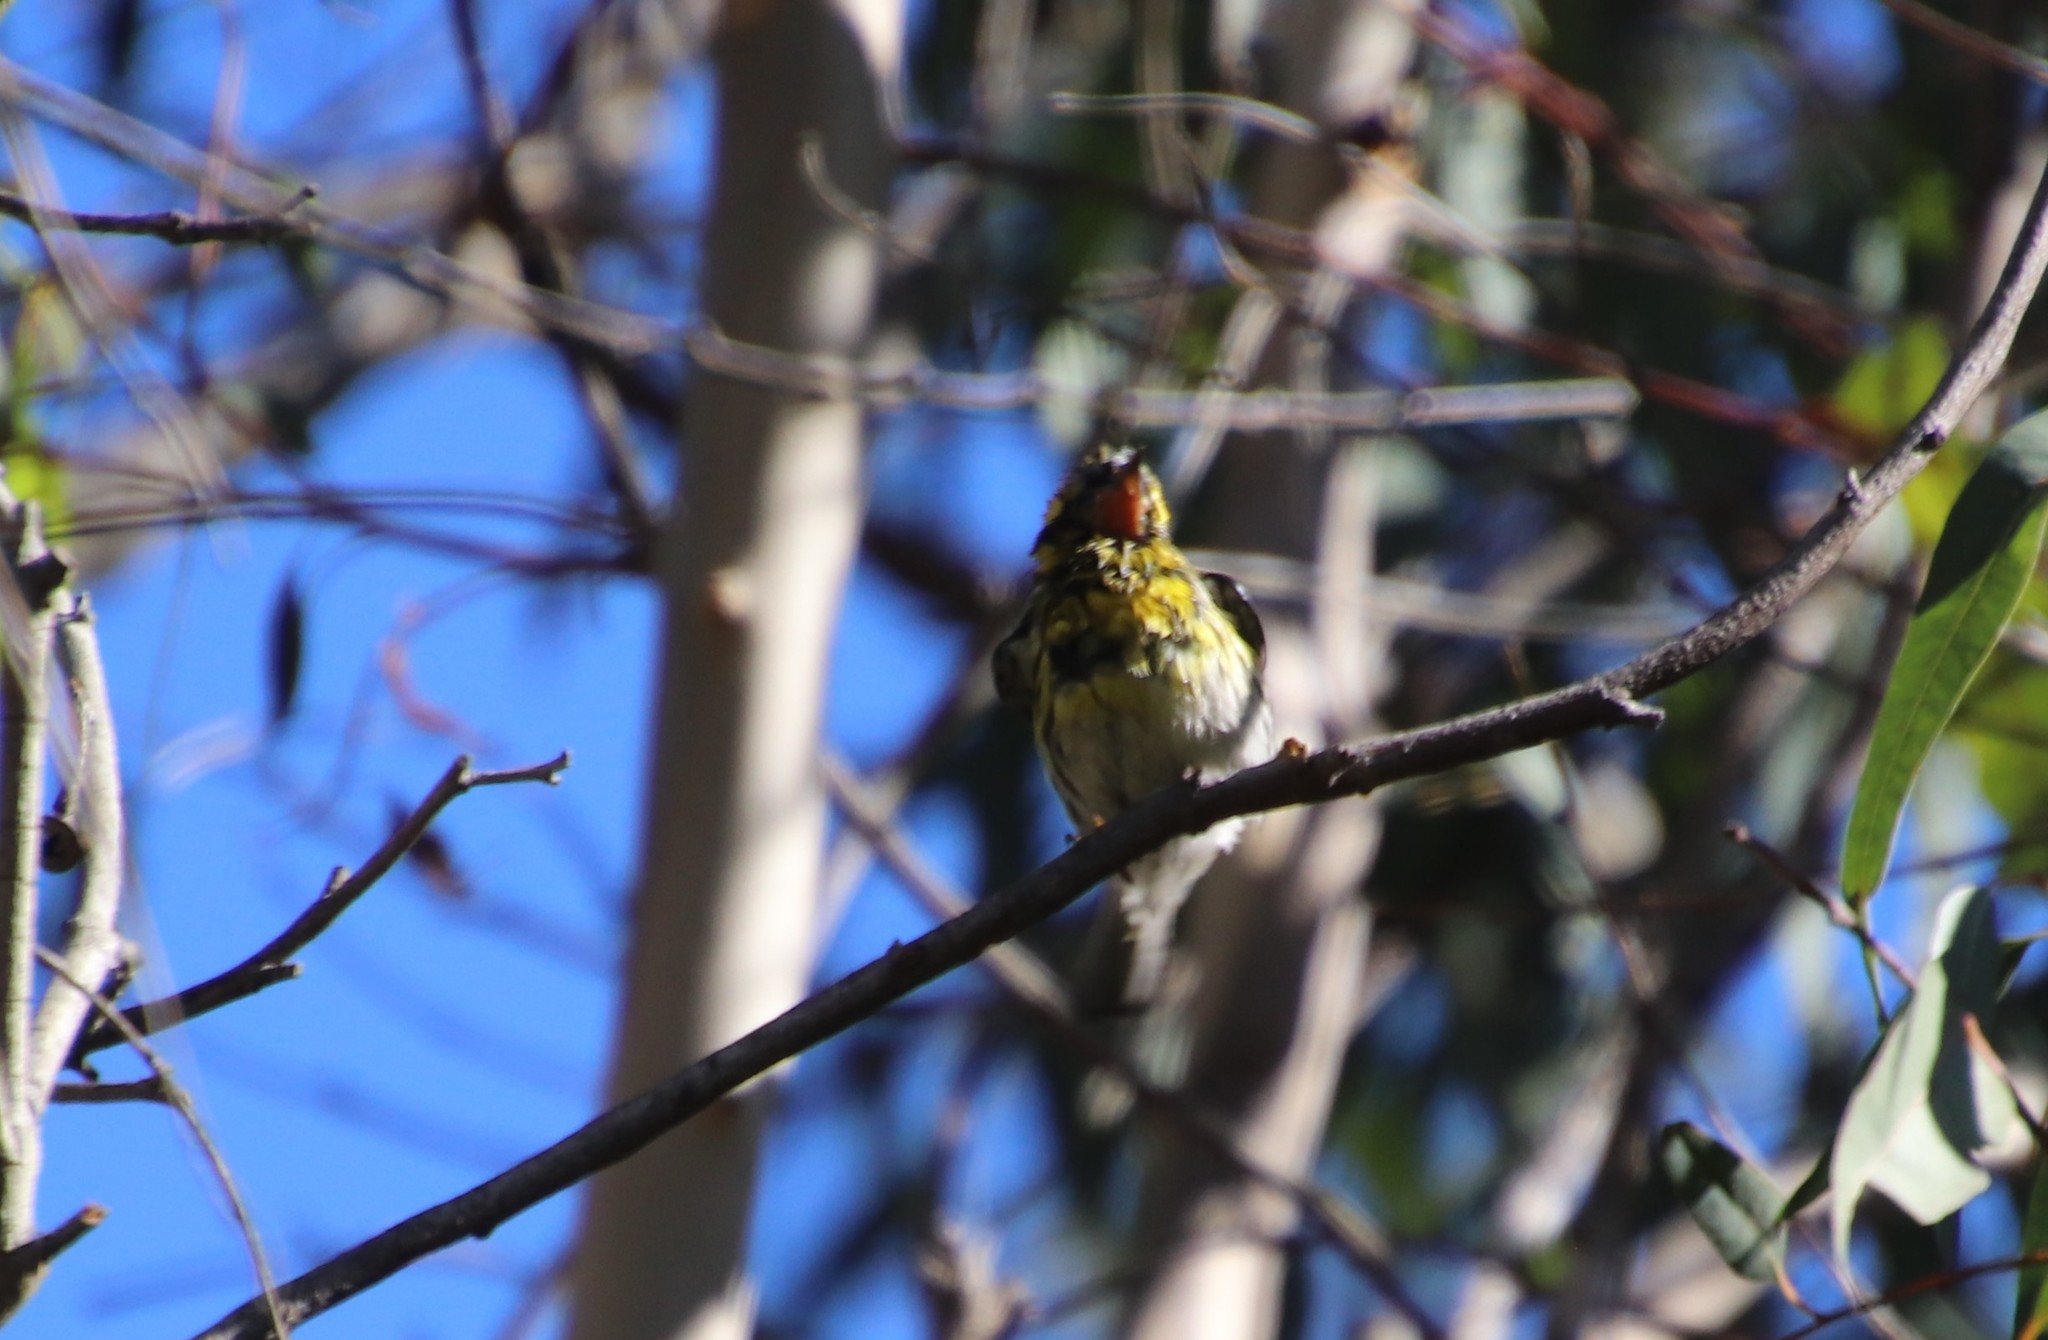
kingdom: Animalia
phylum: Chordata
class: Aves
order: Passeriformes
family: Parulidae
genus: Setophaga
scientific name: Setophaga townsendi
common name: Townsend's warbler
